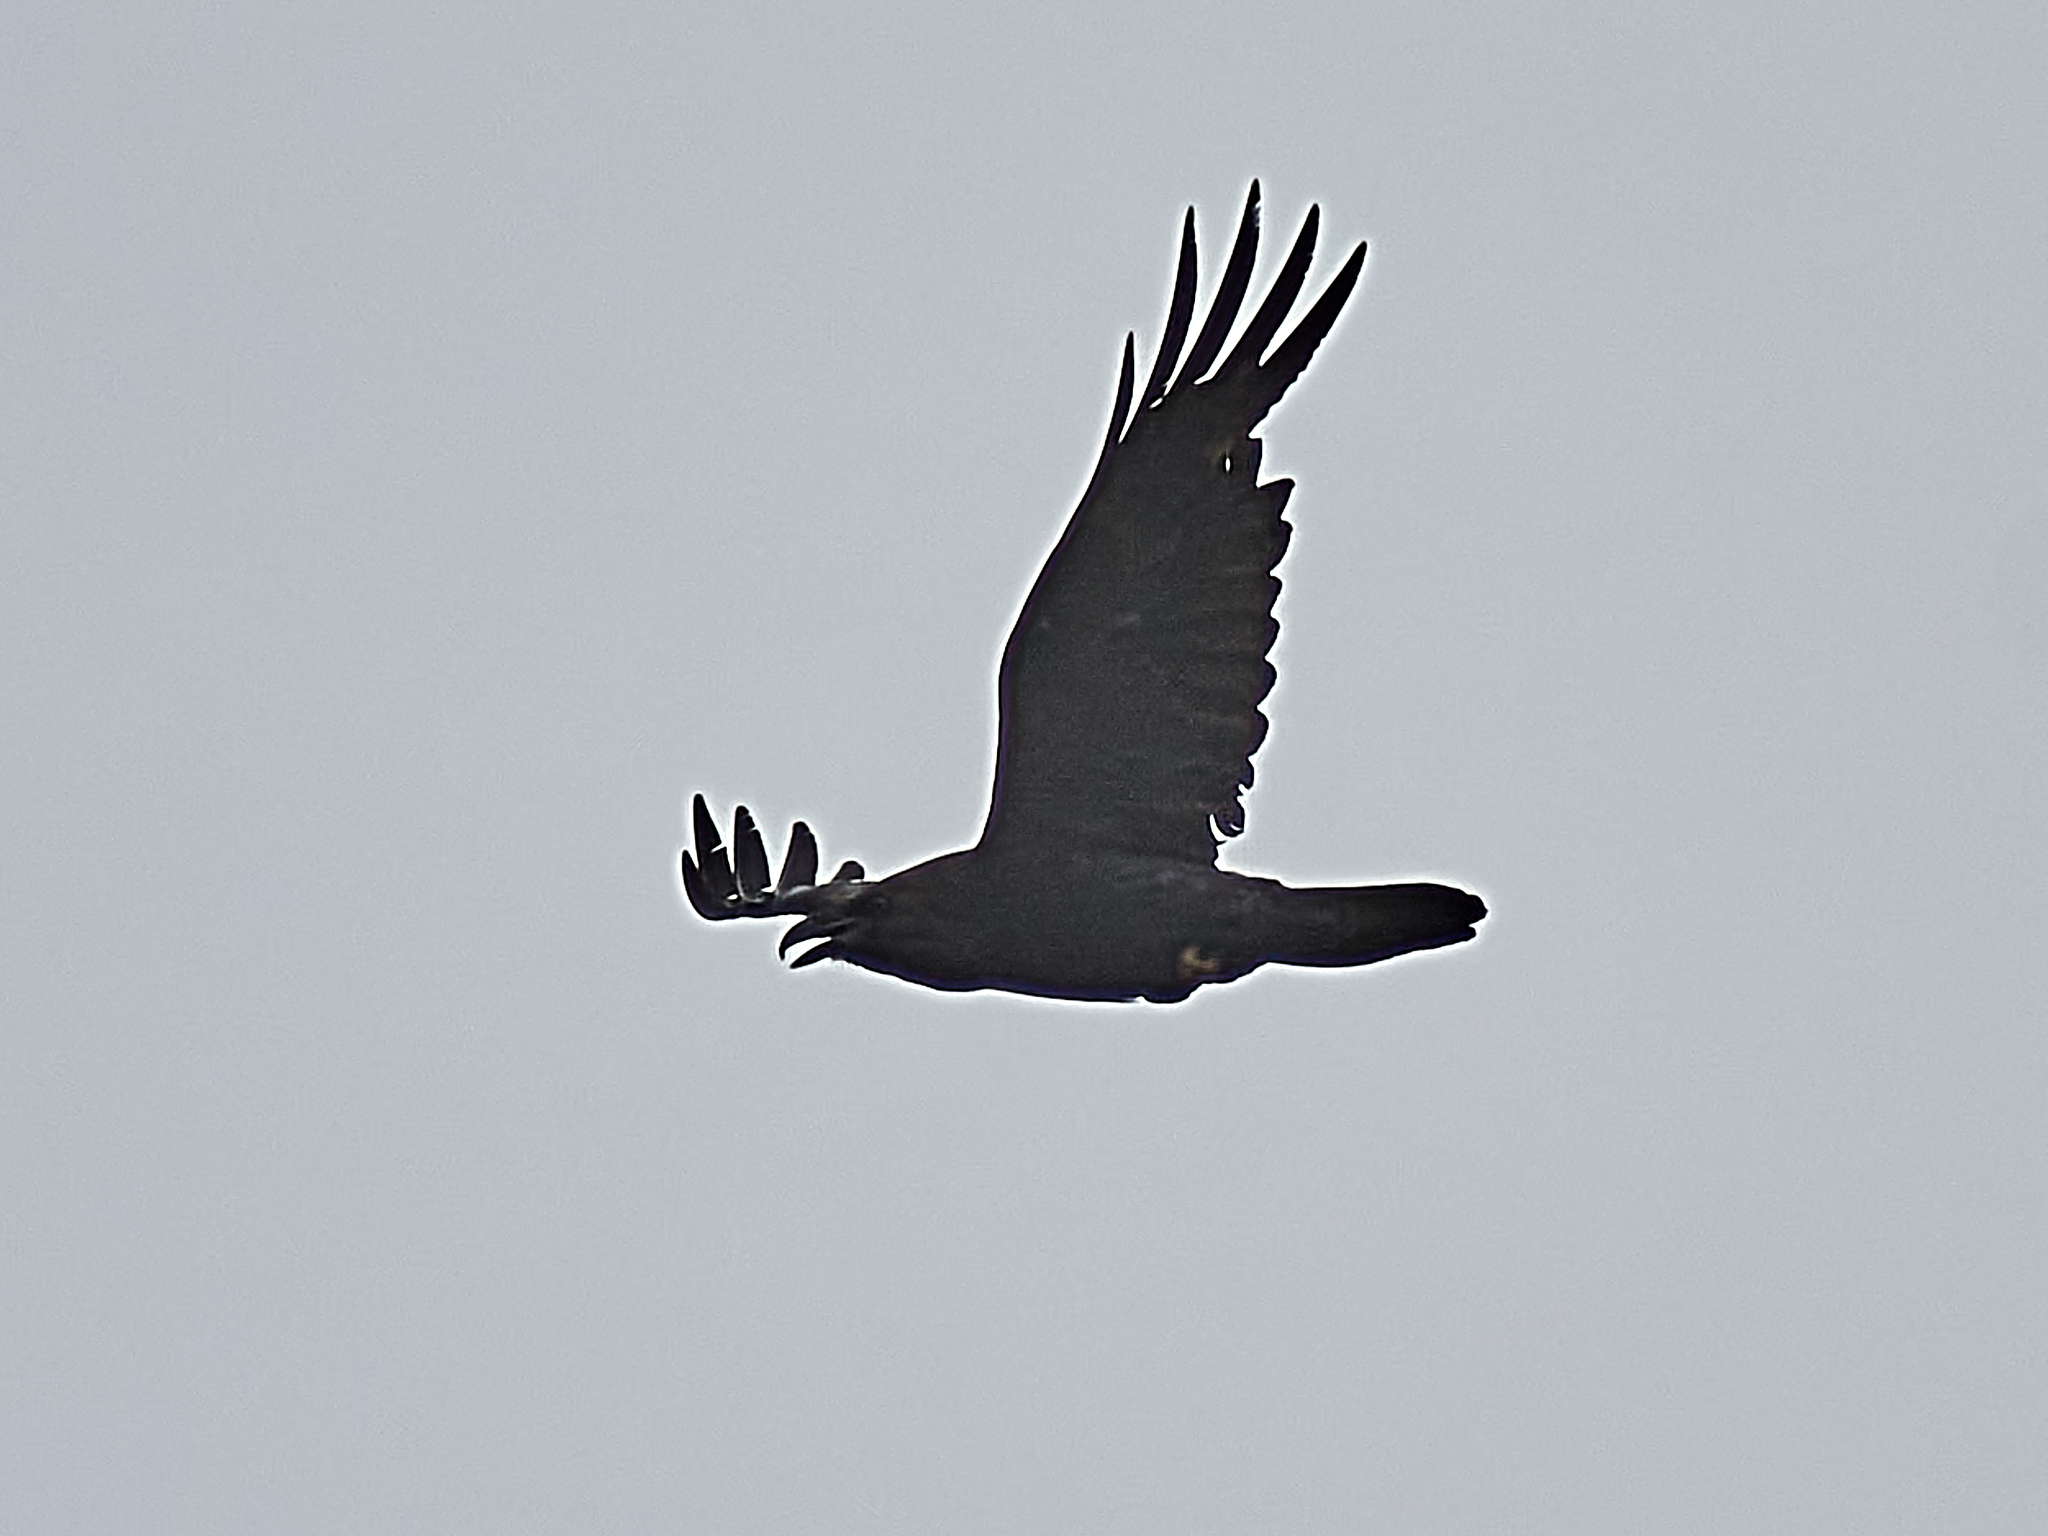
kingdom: Animalia
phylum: Chordata
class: Aves
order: Passeriformes
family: Corvidae
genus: Corvus
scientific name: Corvus corax
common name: Common raven
